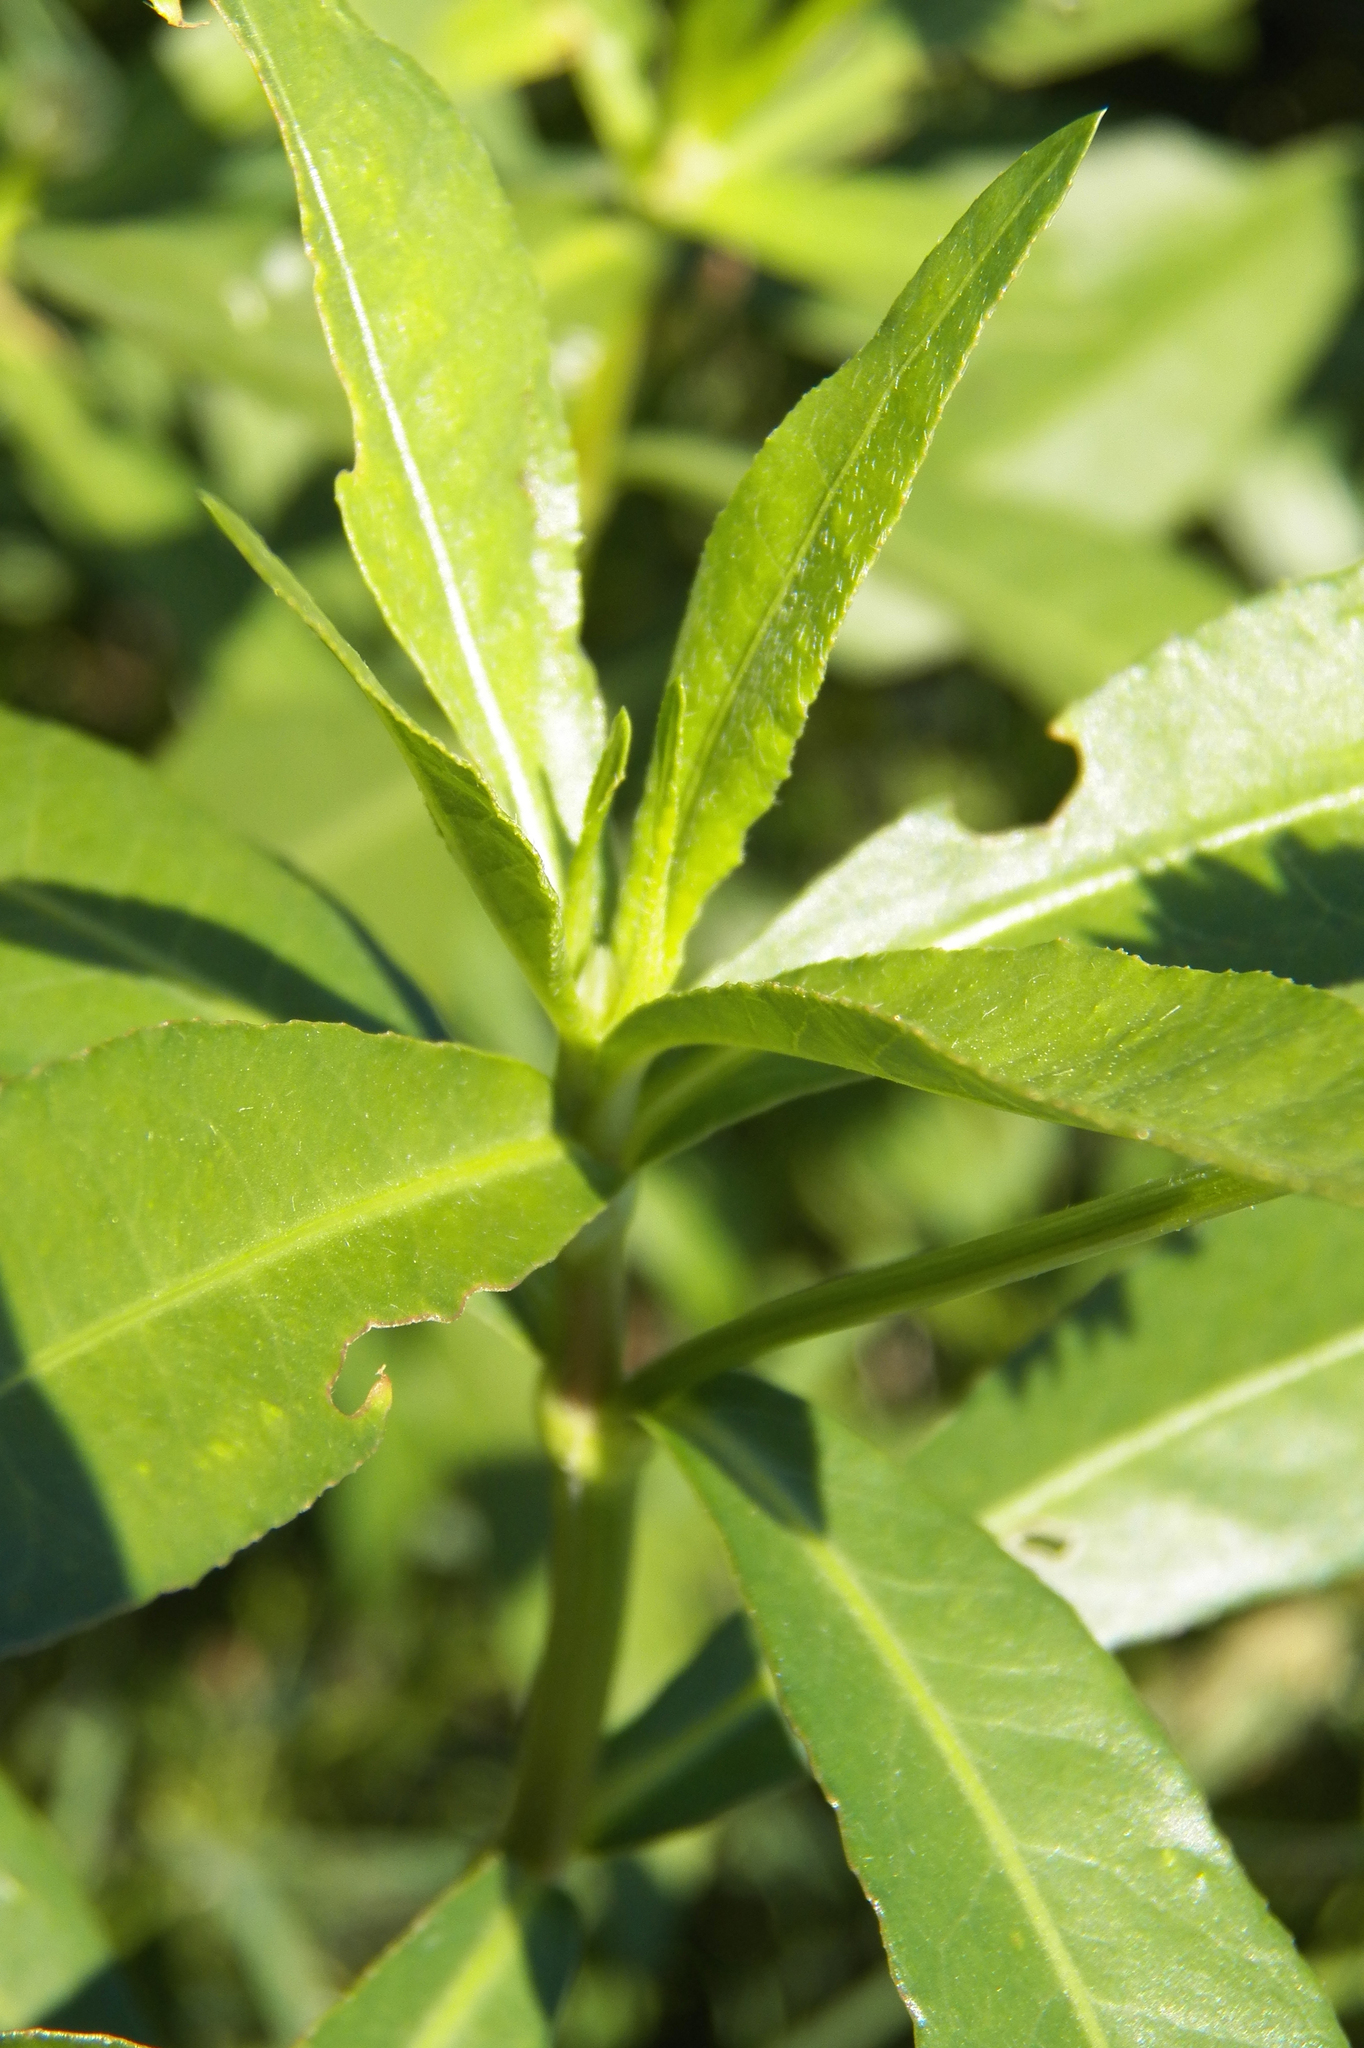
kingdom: Plantae
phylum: Tracheophyta
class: Magnoliopsida
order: Caryophyllales
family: Amaranthaceae
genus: Alternanthera
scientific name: Alternanthera philoxeroides
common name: Alligatorweed
